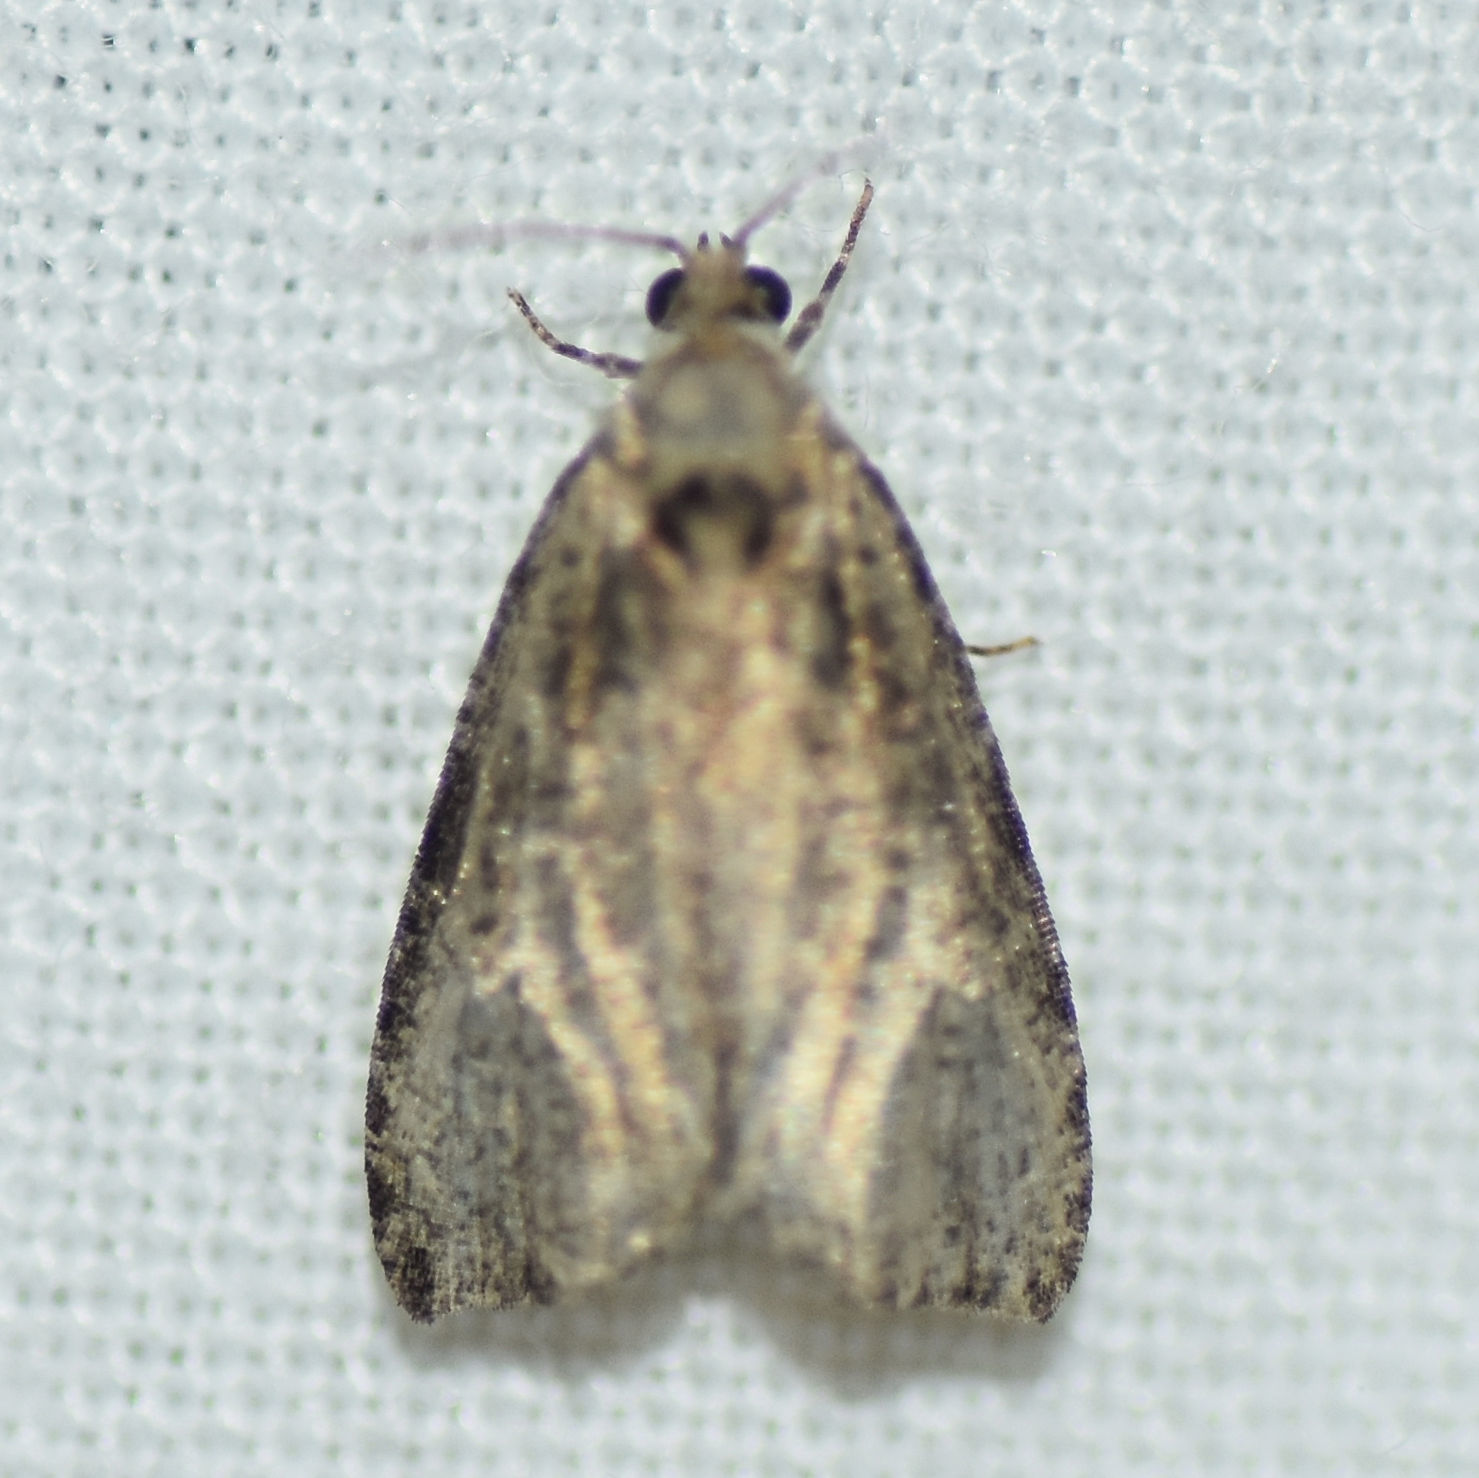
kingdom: Animalia
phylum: Arthropoda
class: Insecta
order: Lepidoptera
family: Tortricidae
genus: Olethreutes
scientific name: Olethreutes exoletum
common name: Wretched olethreutes moth
